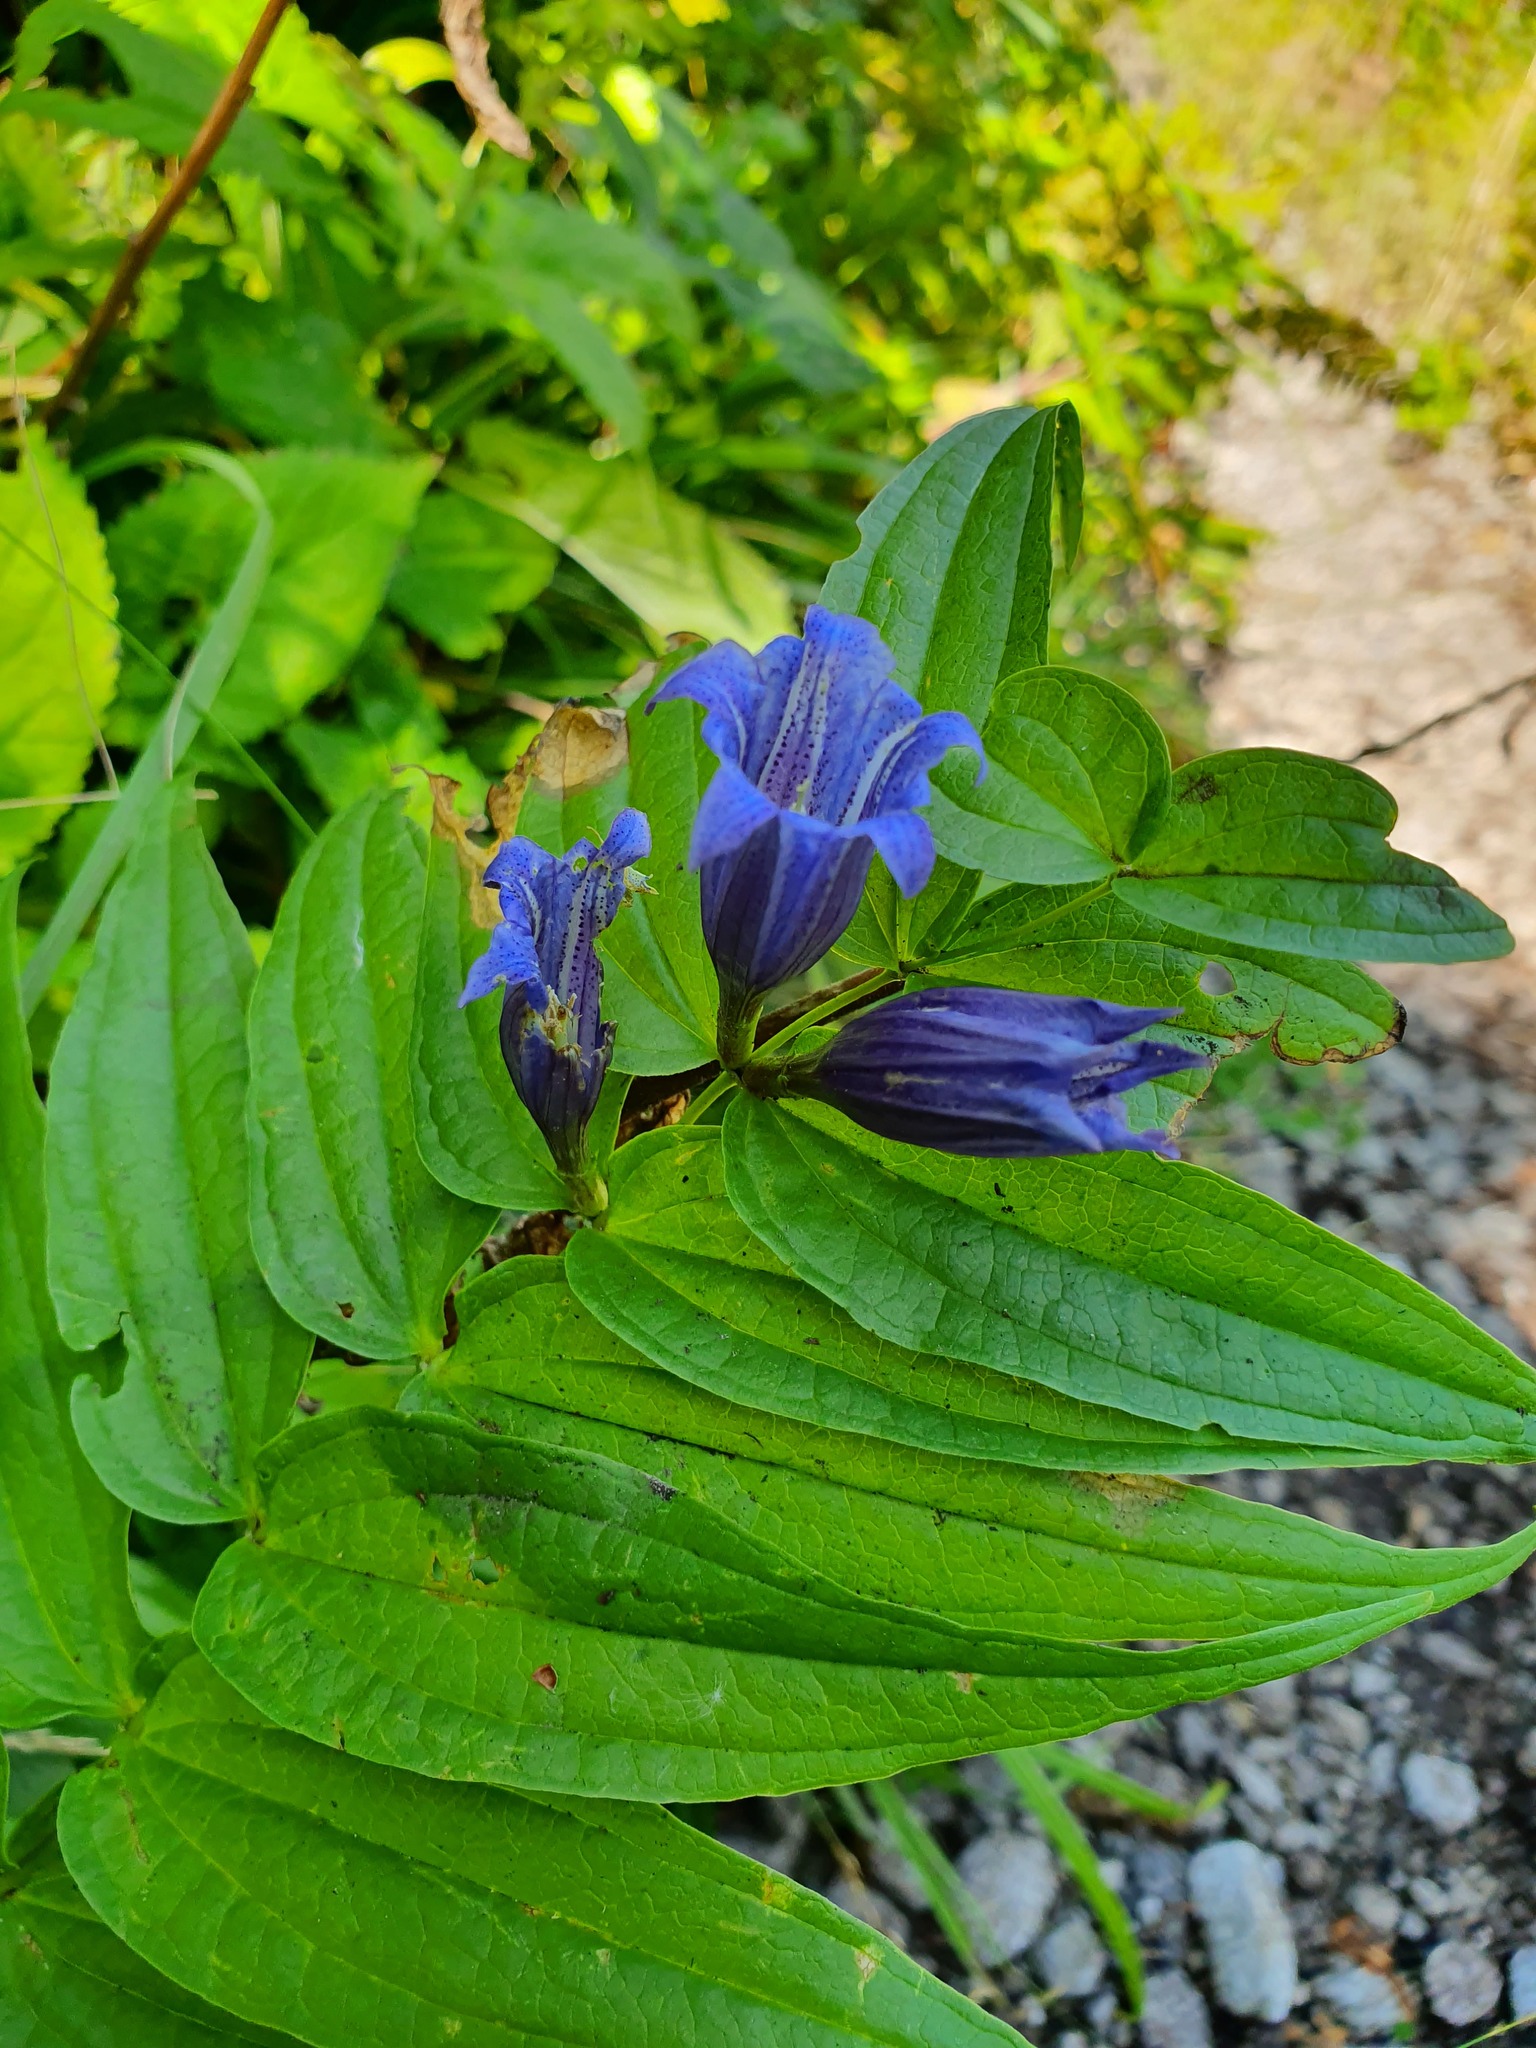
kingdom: Plantae
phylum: Tracheophyta
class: Magnoliopsida
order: Gentianales
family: Gentianaceae
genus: Gentiana
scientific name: Gentiana asclepiadea
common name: Willow gentian
